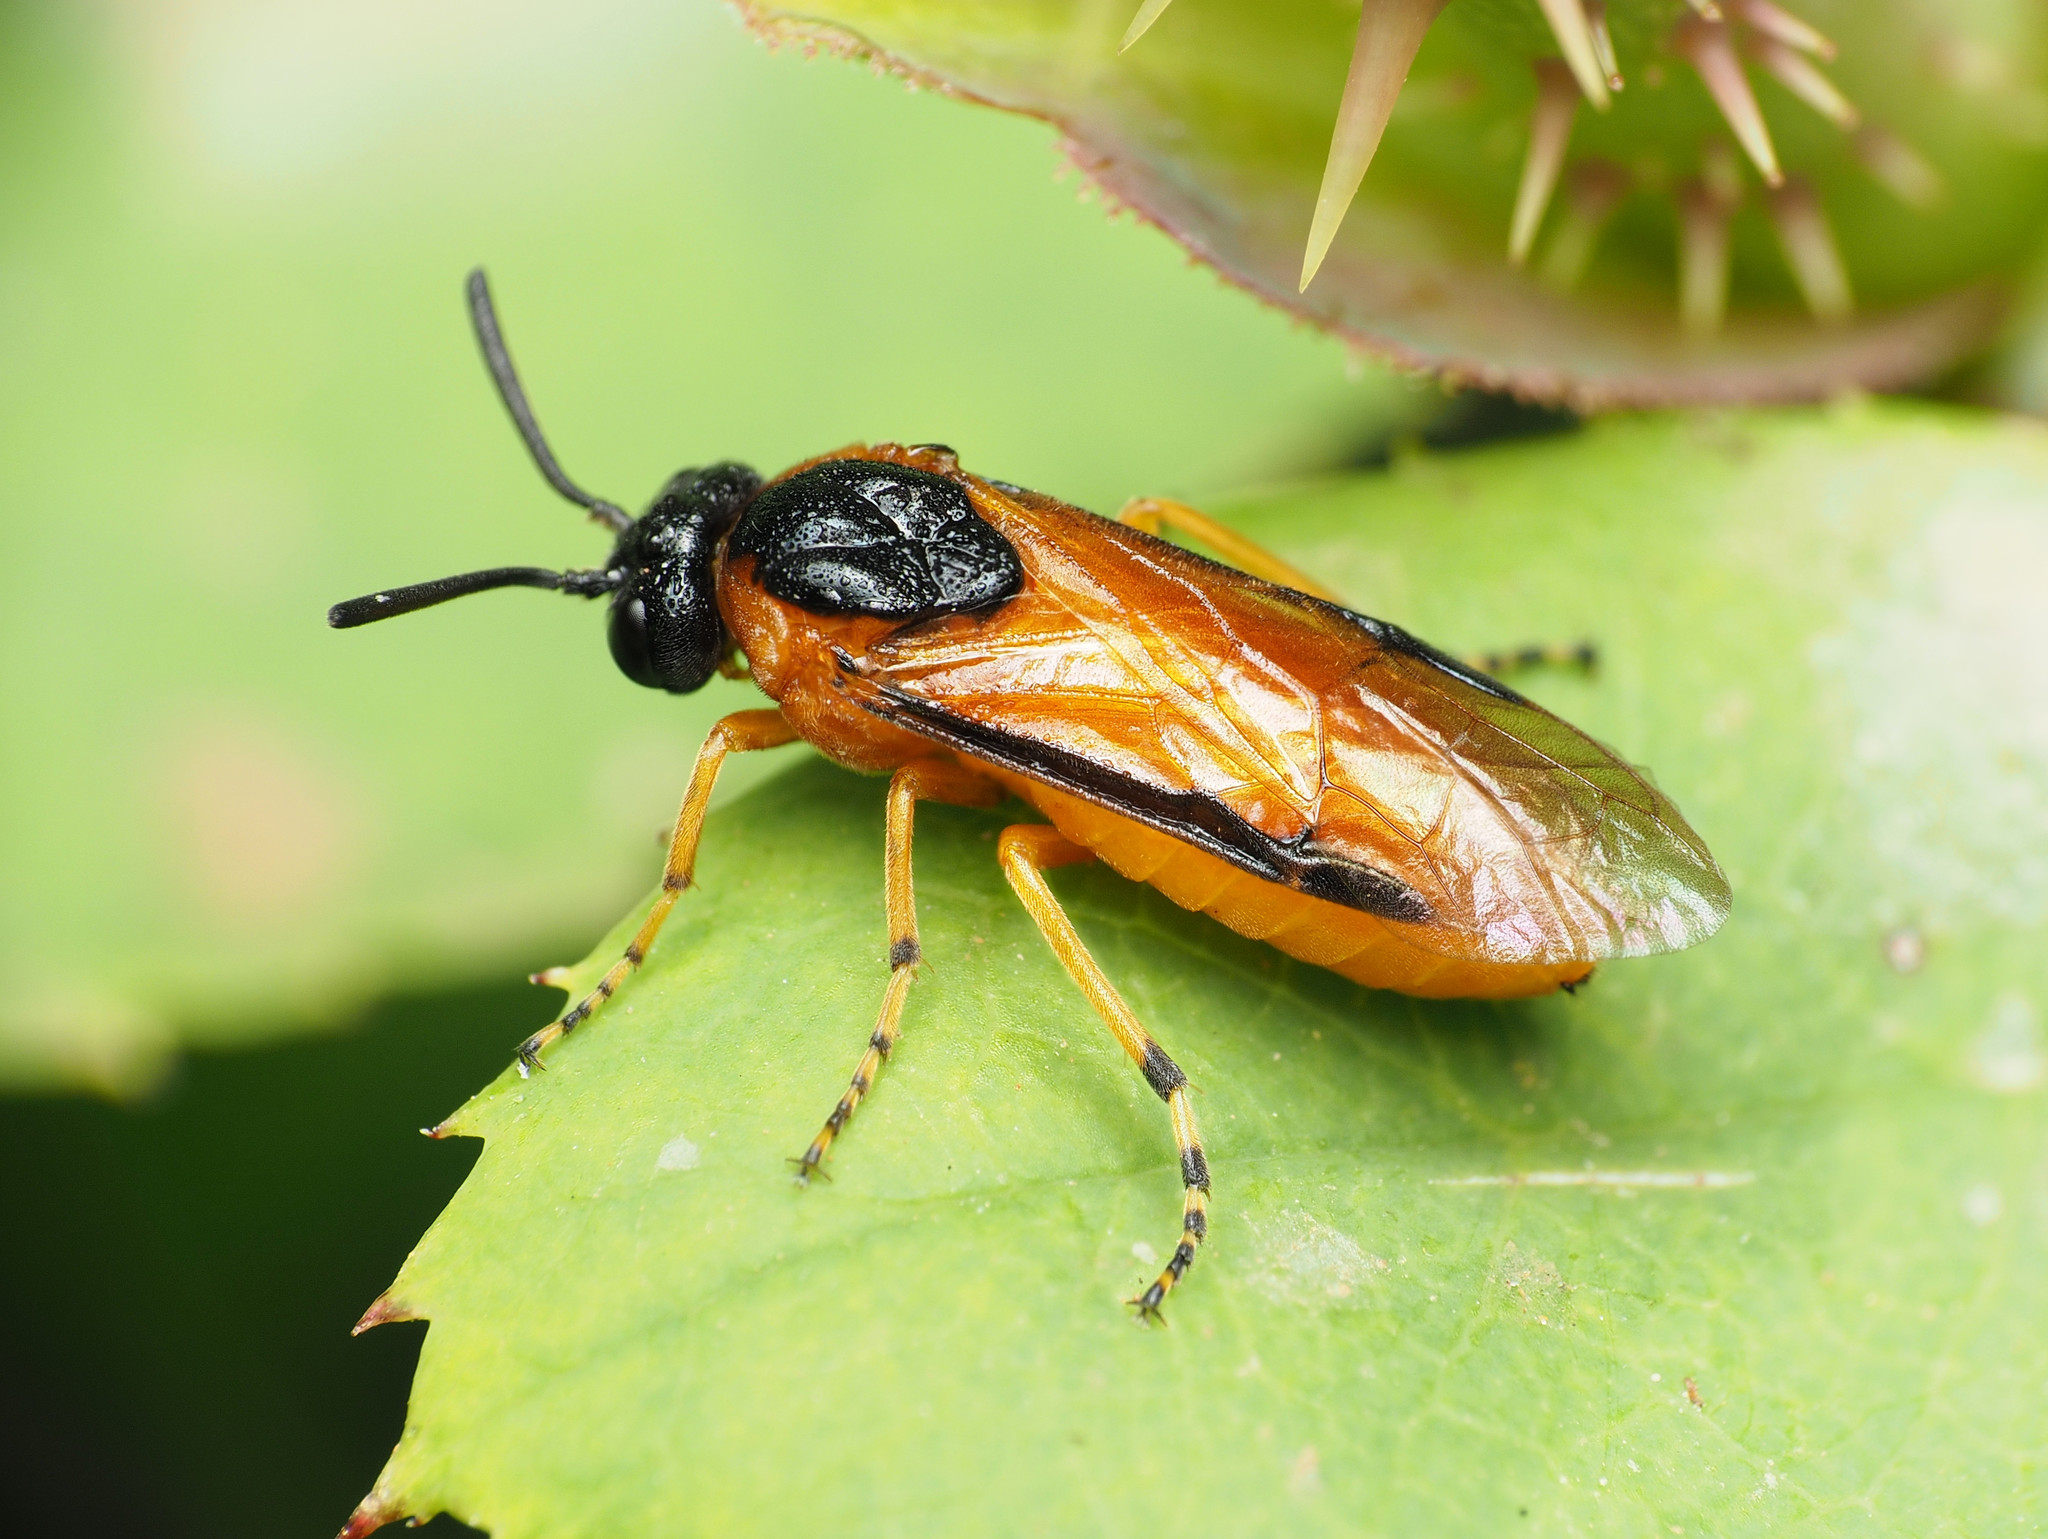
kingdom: Animalia
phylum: Arthropoda
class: Insecta
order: Hymenoptera
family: Argidae
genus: Arge
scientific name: Arge ochropus
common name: Argid sawfly
